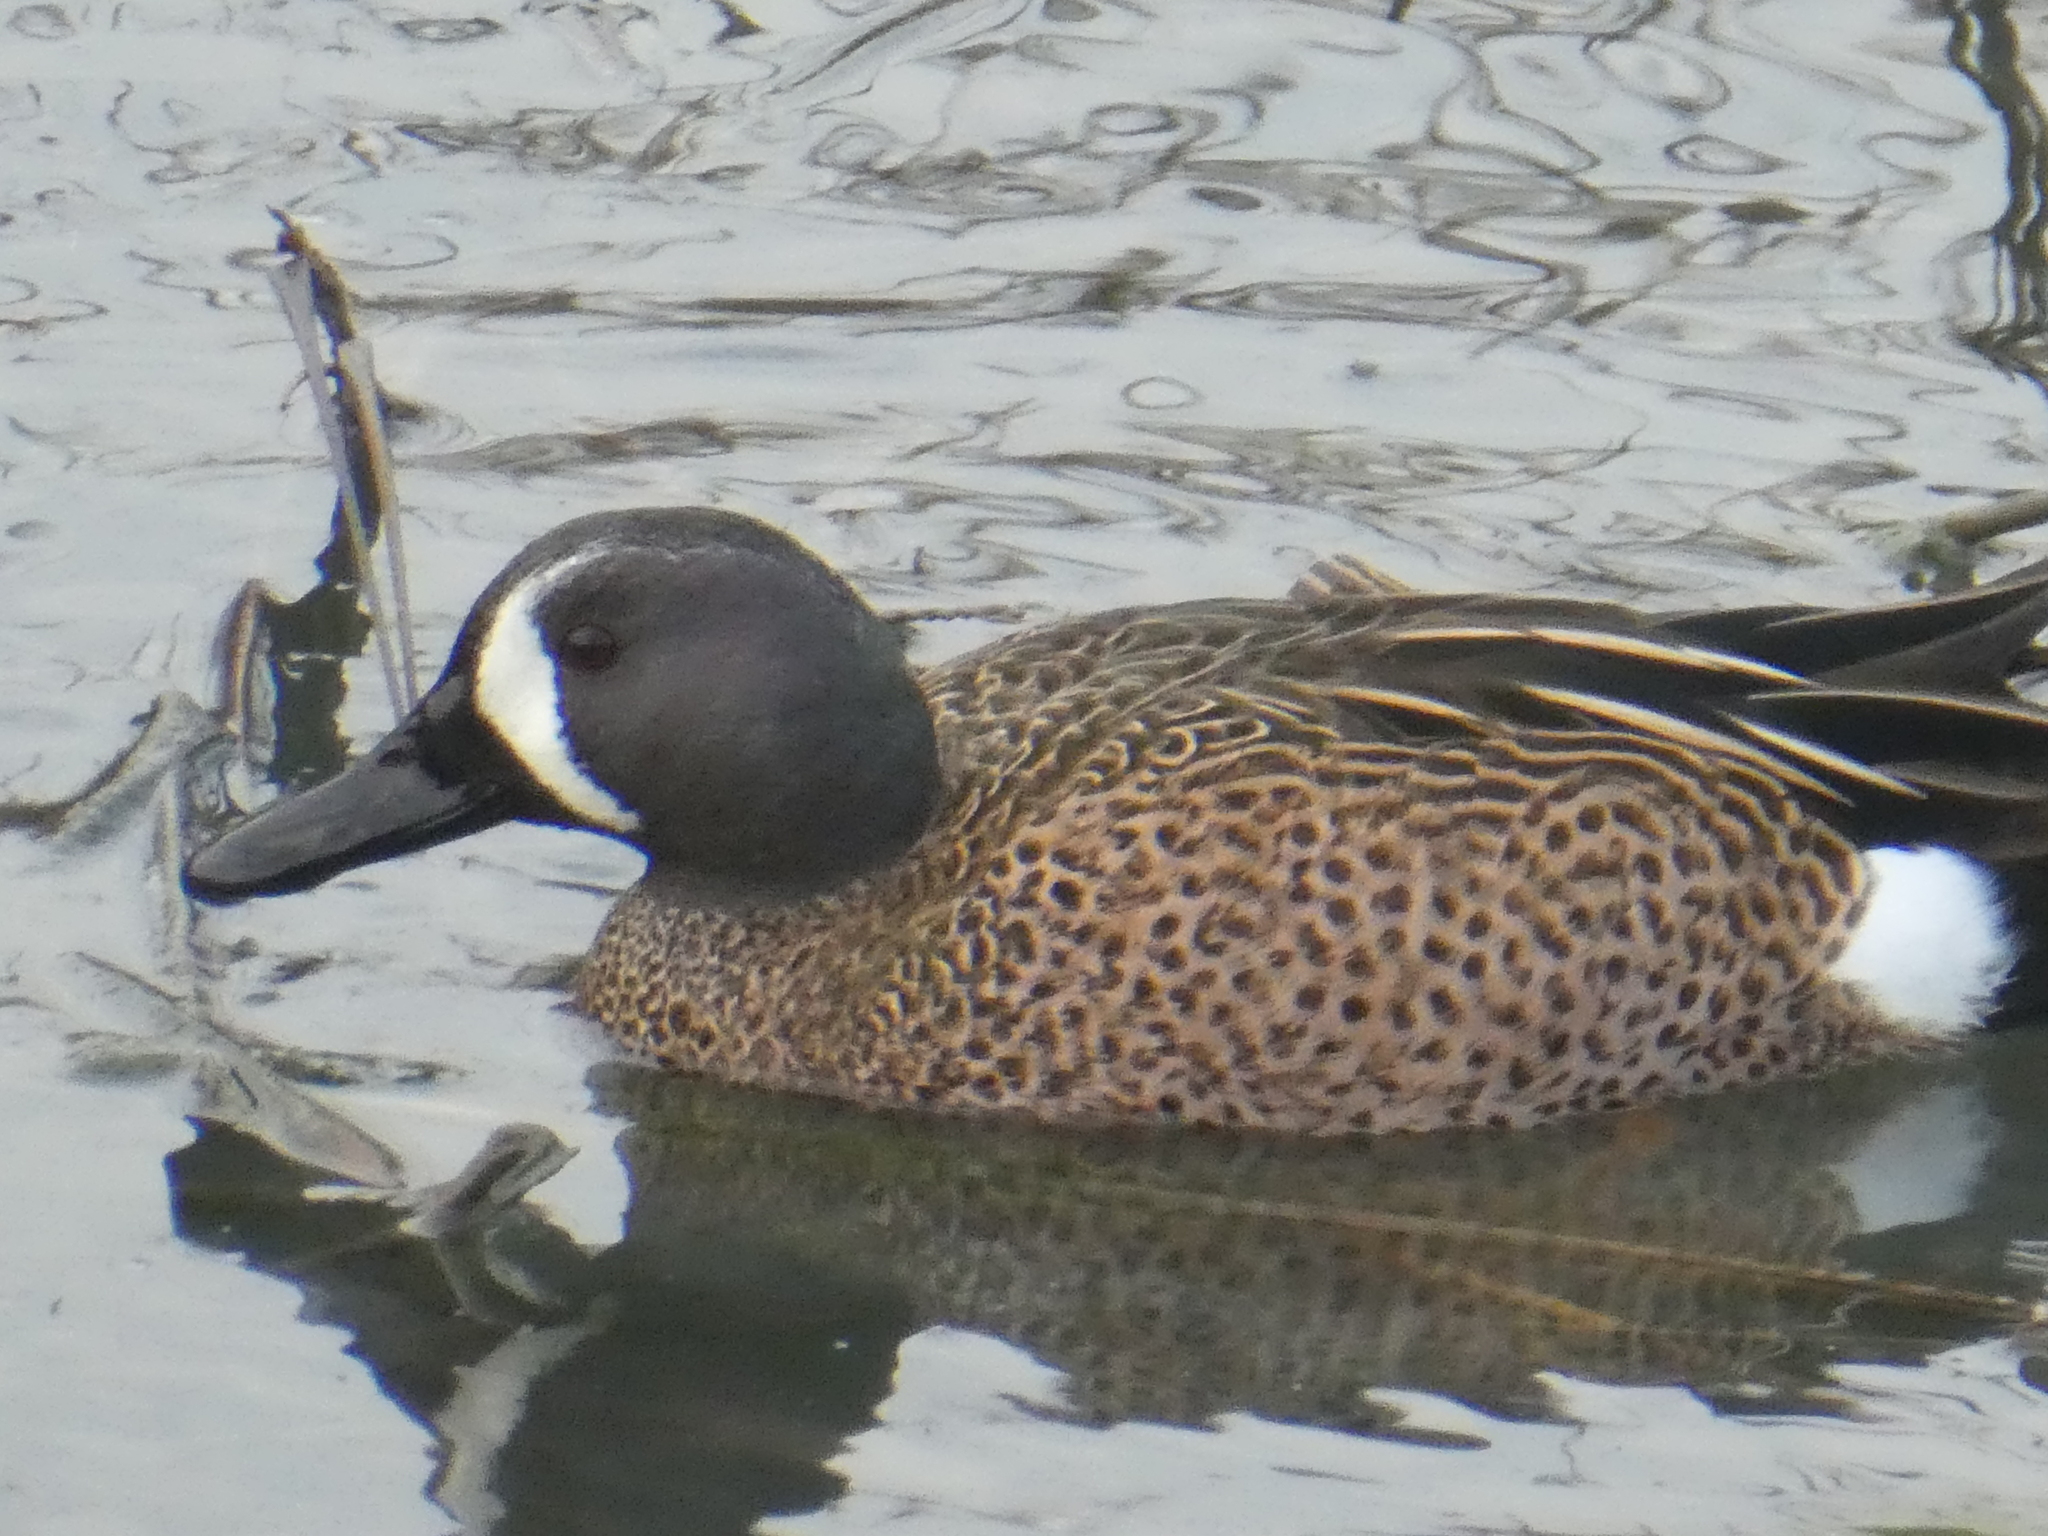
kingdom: Animalia
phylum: Chordata
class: Aves
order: Anseriformes
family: Anatidae
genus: Spatula
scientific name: Spatula discors
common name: Blue-winged teal
